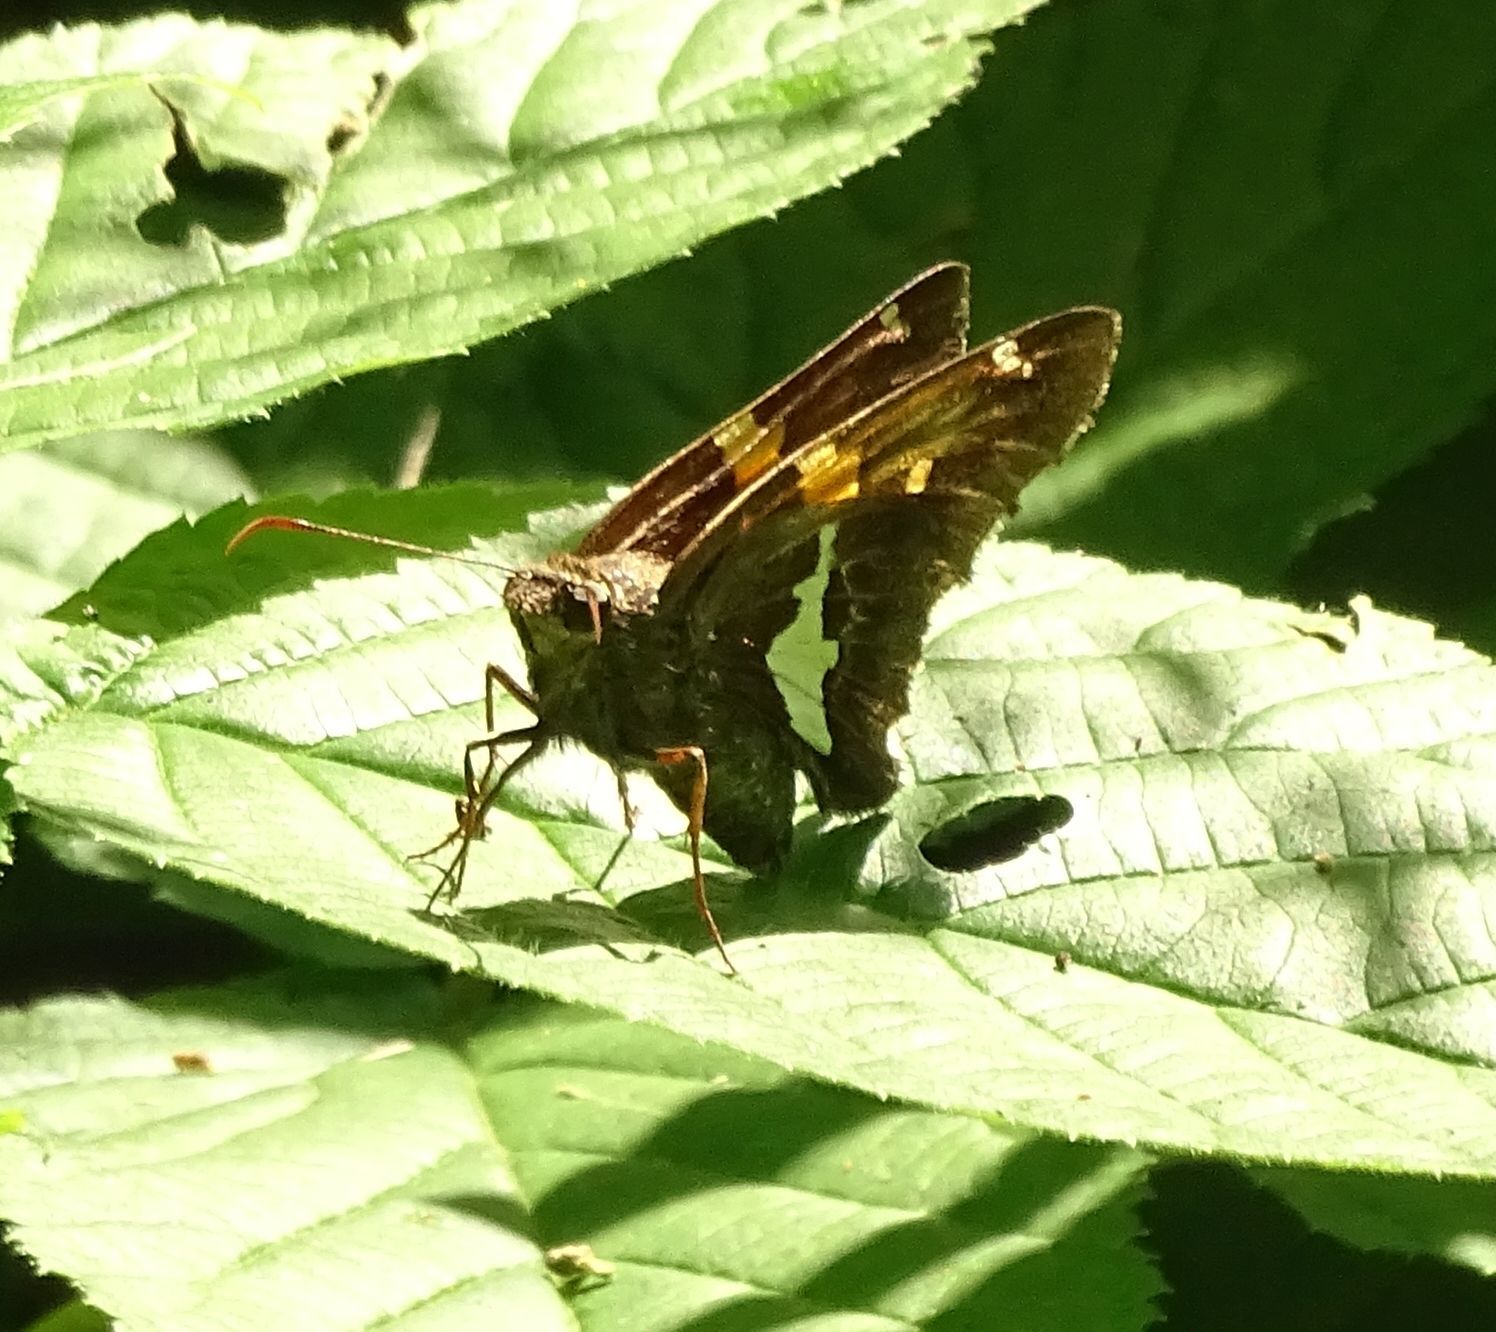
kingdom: Animalia
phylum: Arthropoda
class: Insecta
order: Lepidoptera
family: Hesperiidae
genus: Epargyreus
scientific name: Epargyreus clarus
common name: Silver-spotted skipper
